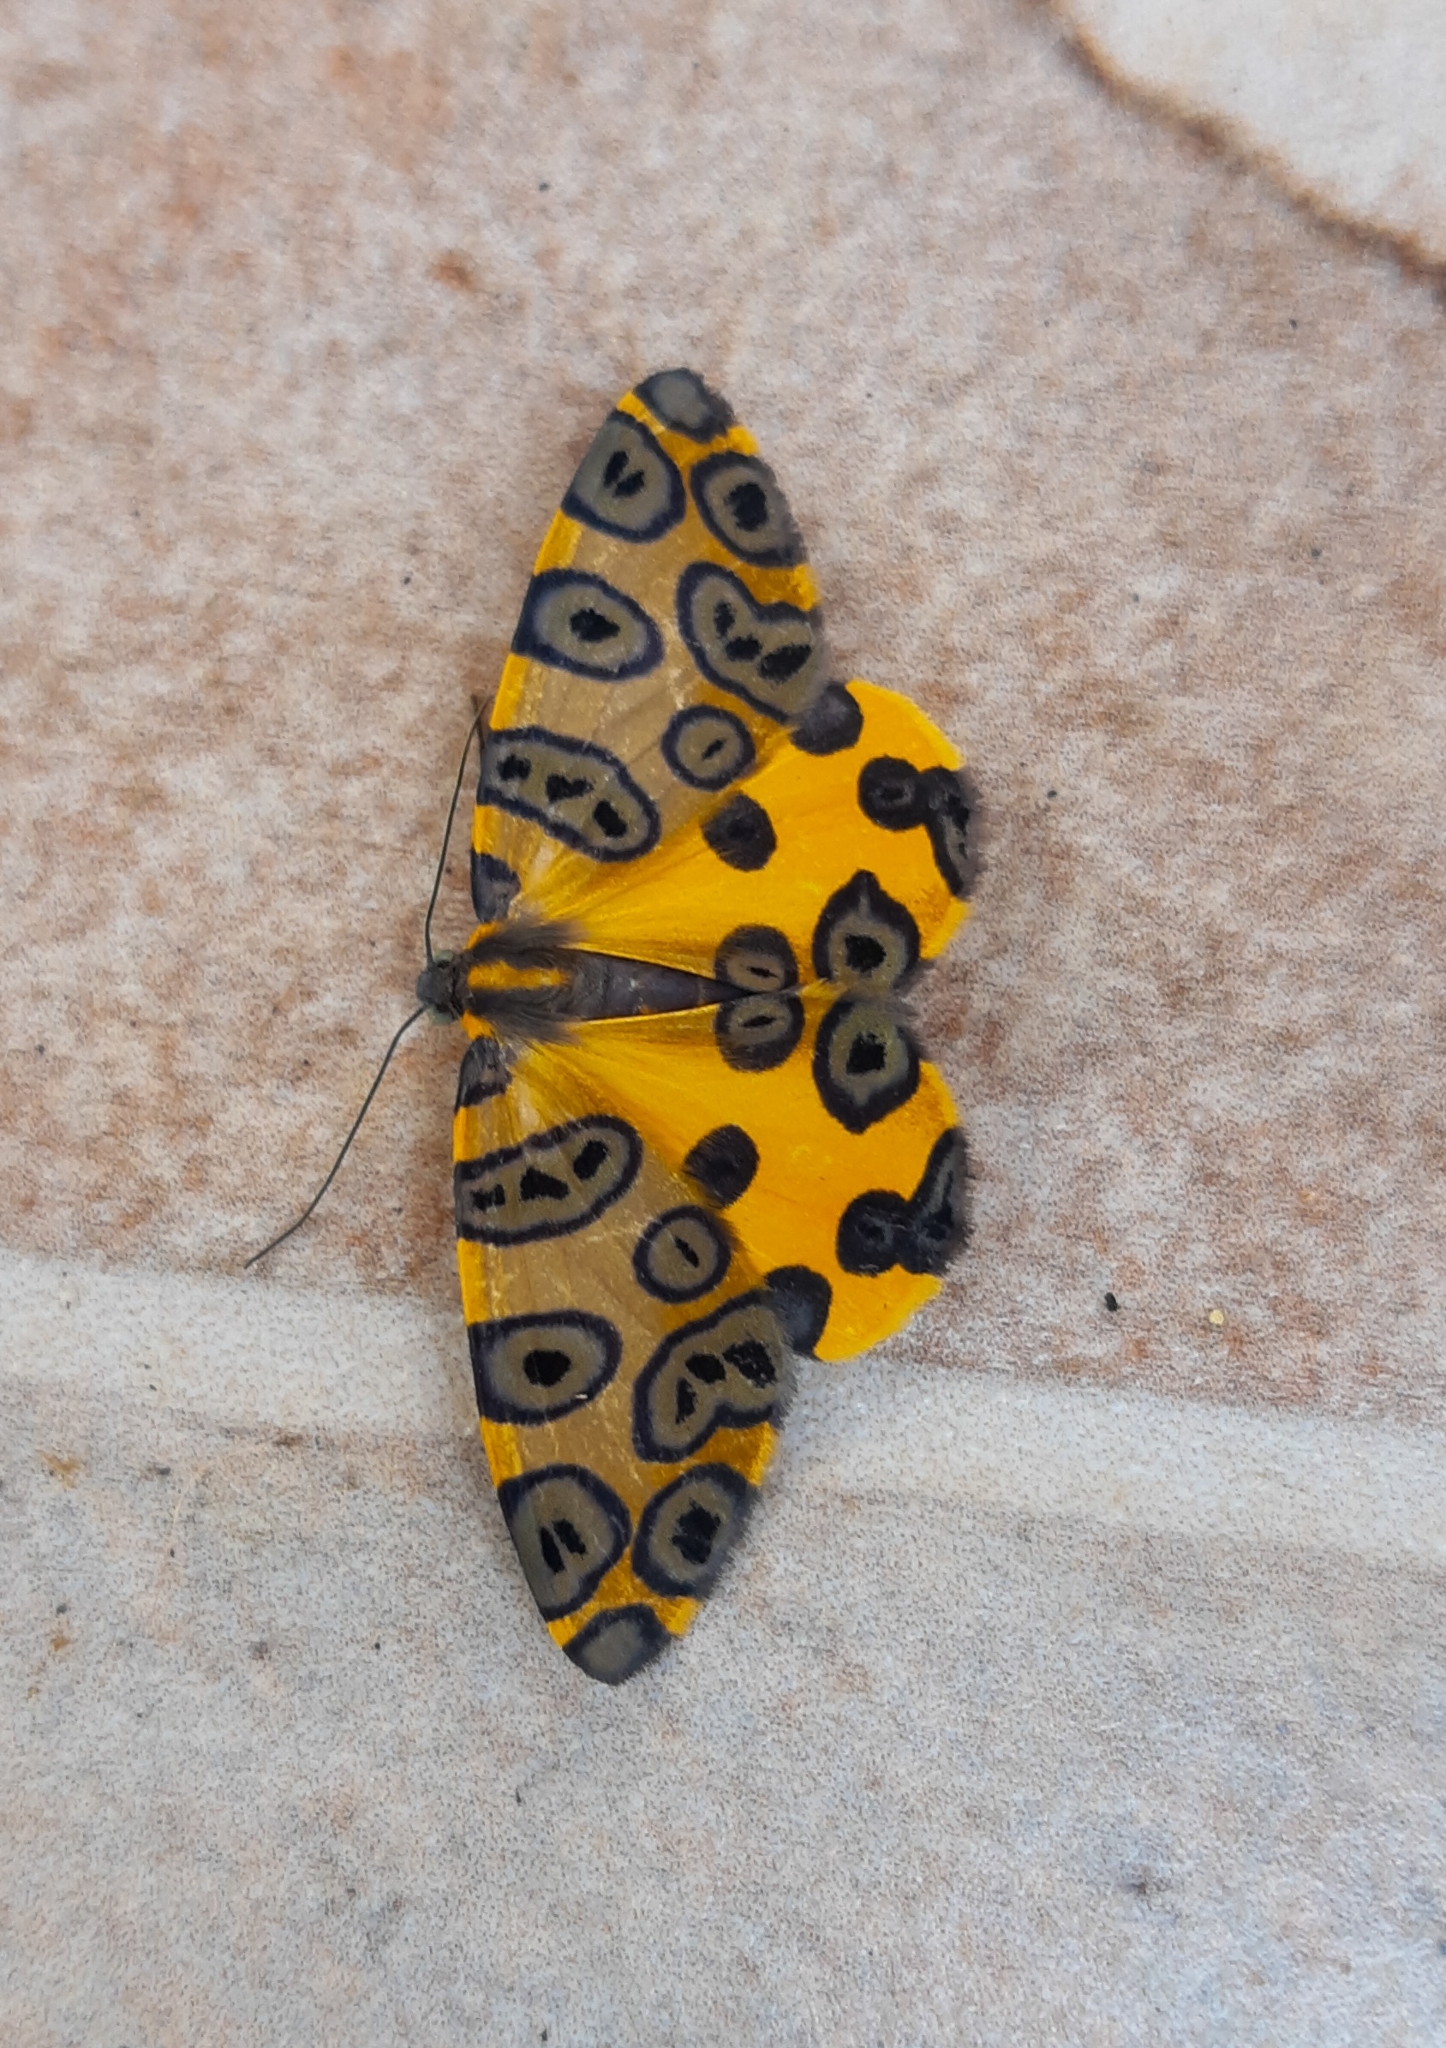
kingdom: Animalia
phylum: Arthropoda
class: Insecta
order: Lepidoptera
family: Geometridae
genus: Pantherodes
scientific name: Pantherodes pardalaria
